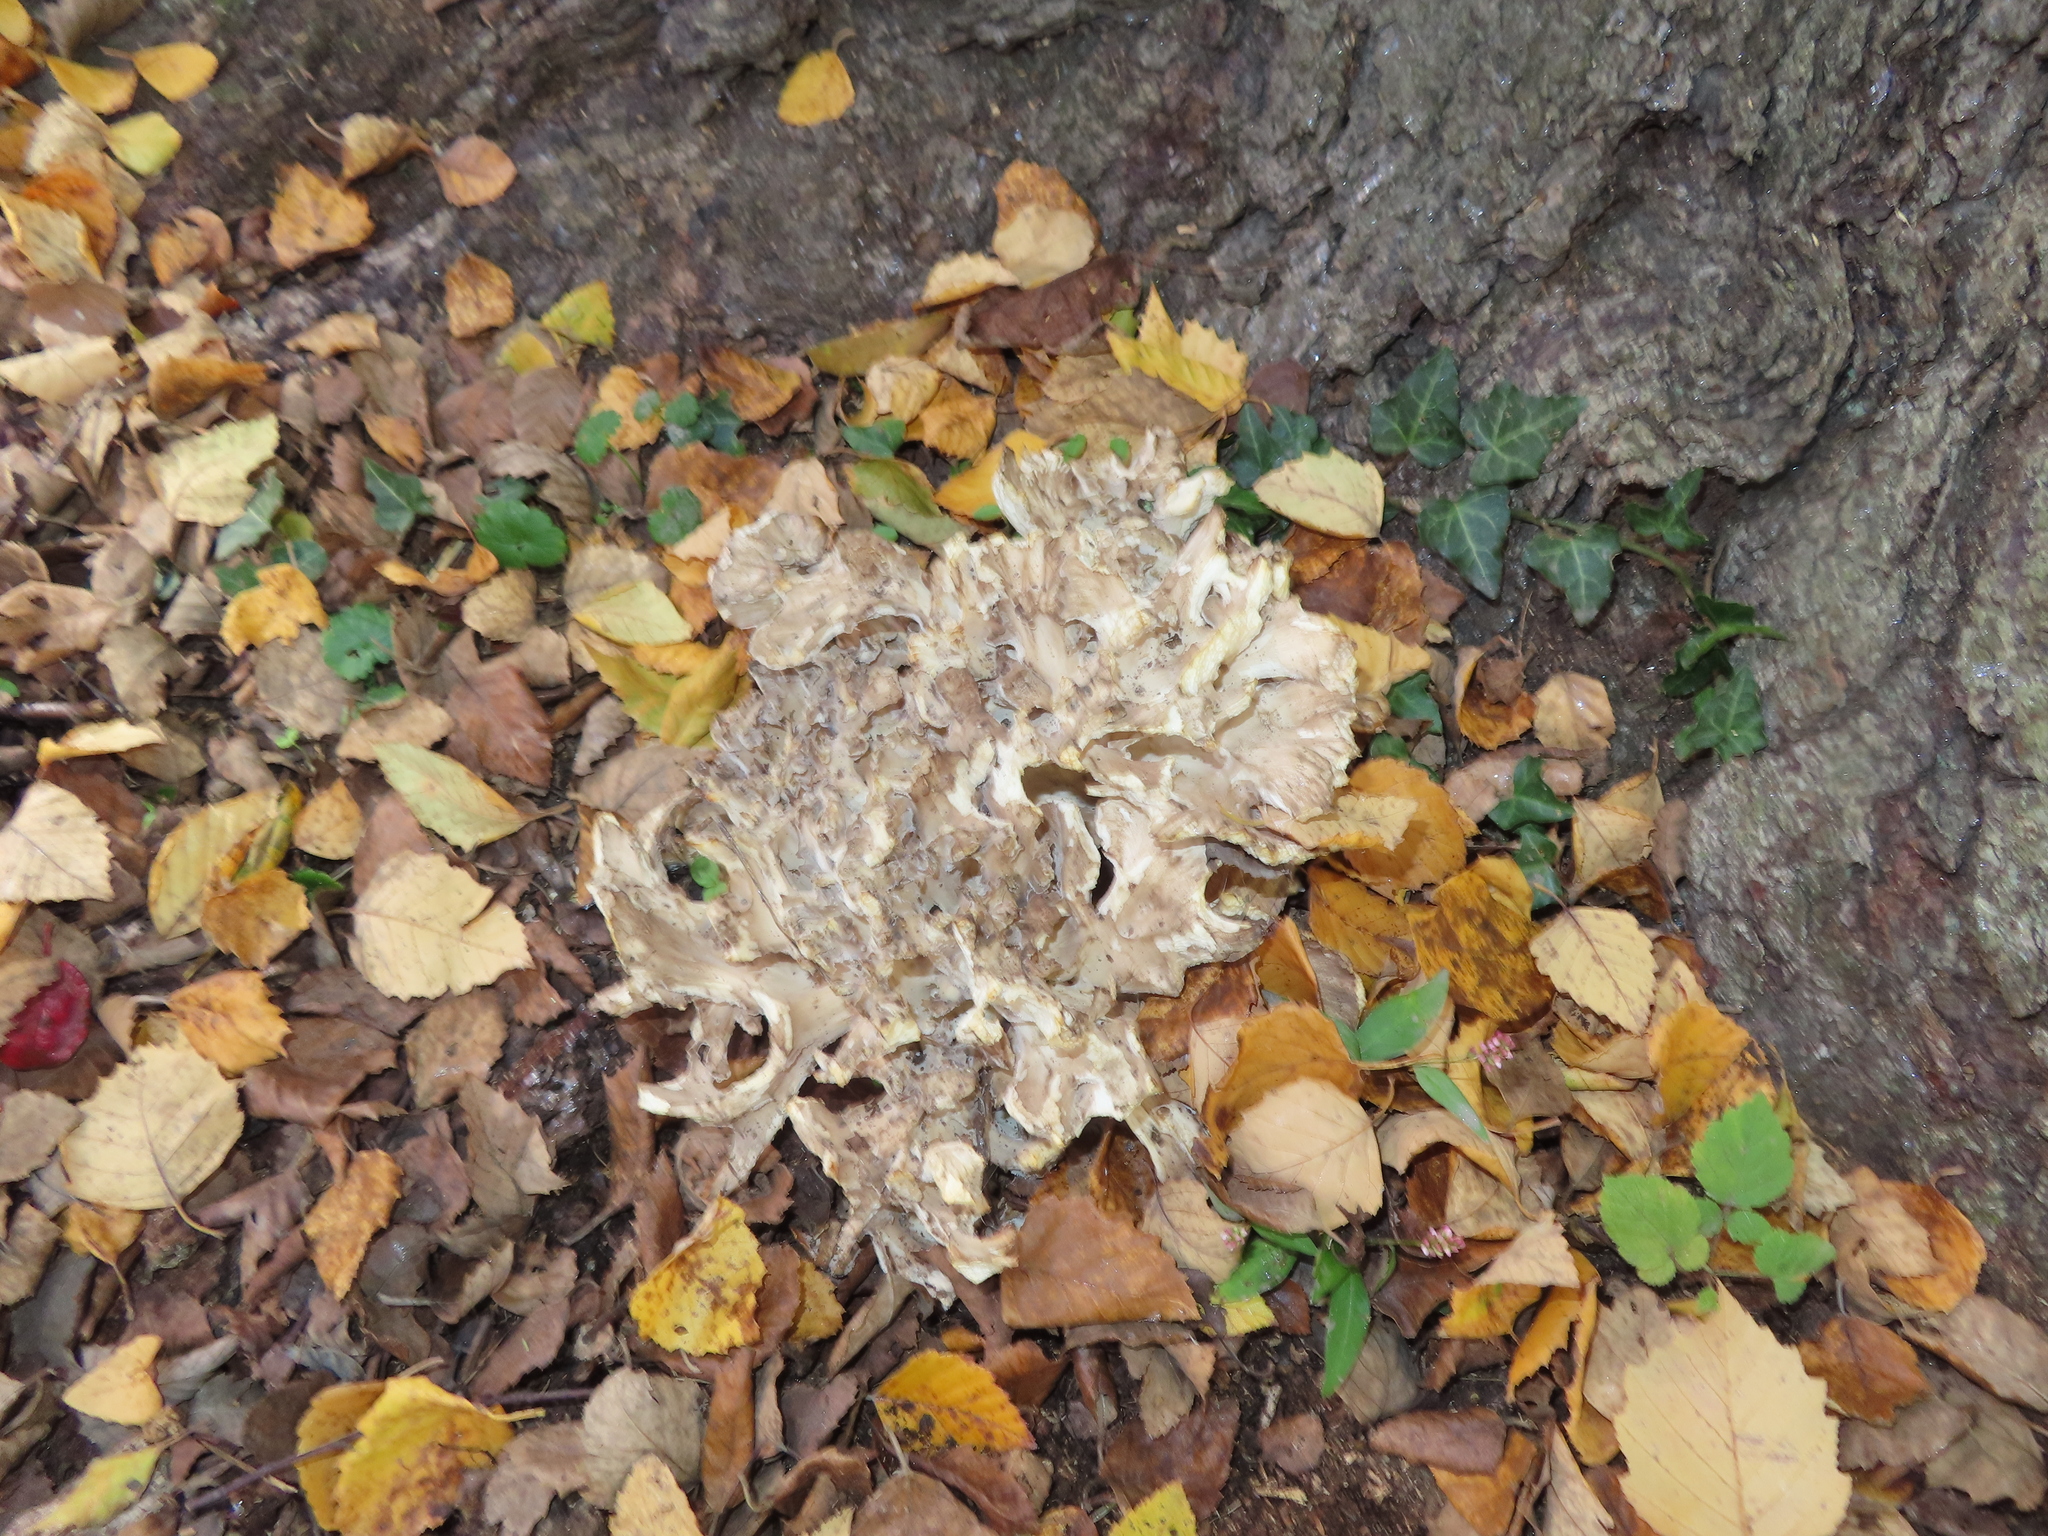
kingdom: Fungi
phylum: Basidiomycota
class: Agaricomycetes
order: Polyporales
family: Grifolaceae
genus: Grifola
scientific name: Grifola frondosa
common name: Hen of the woods
